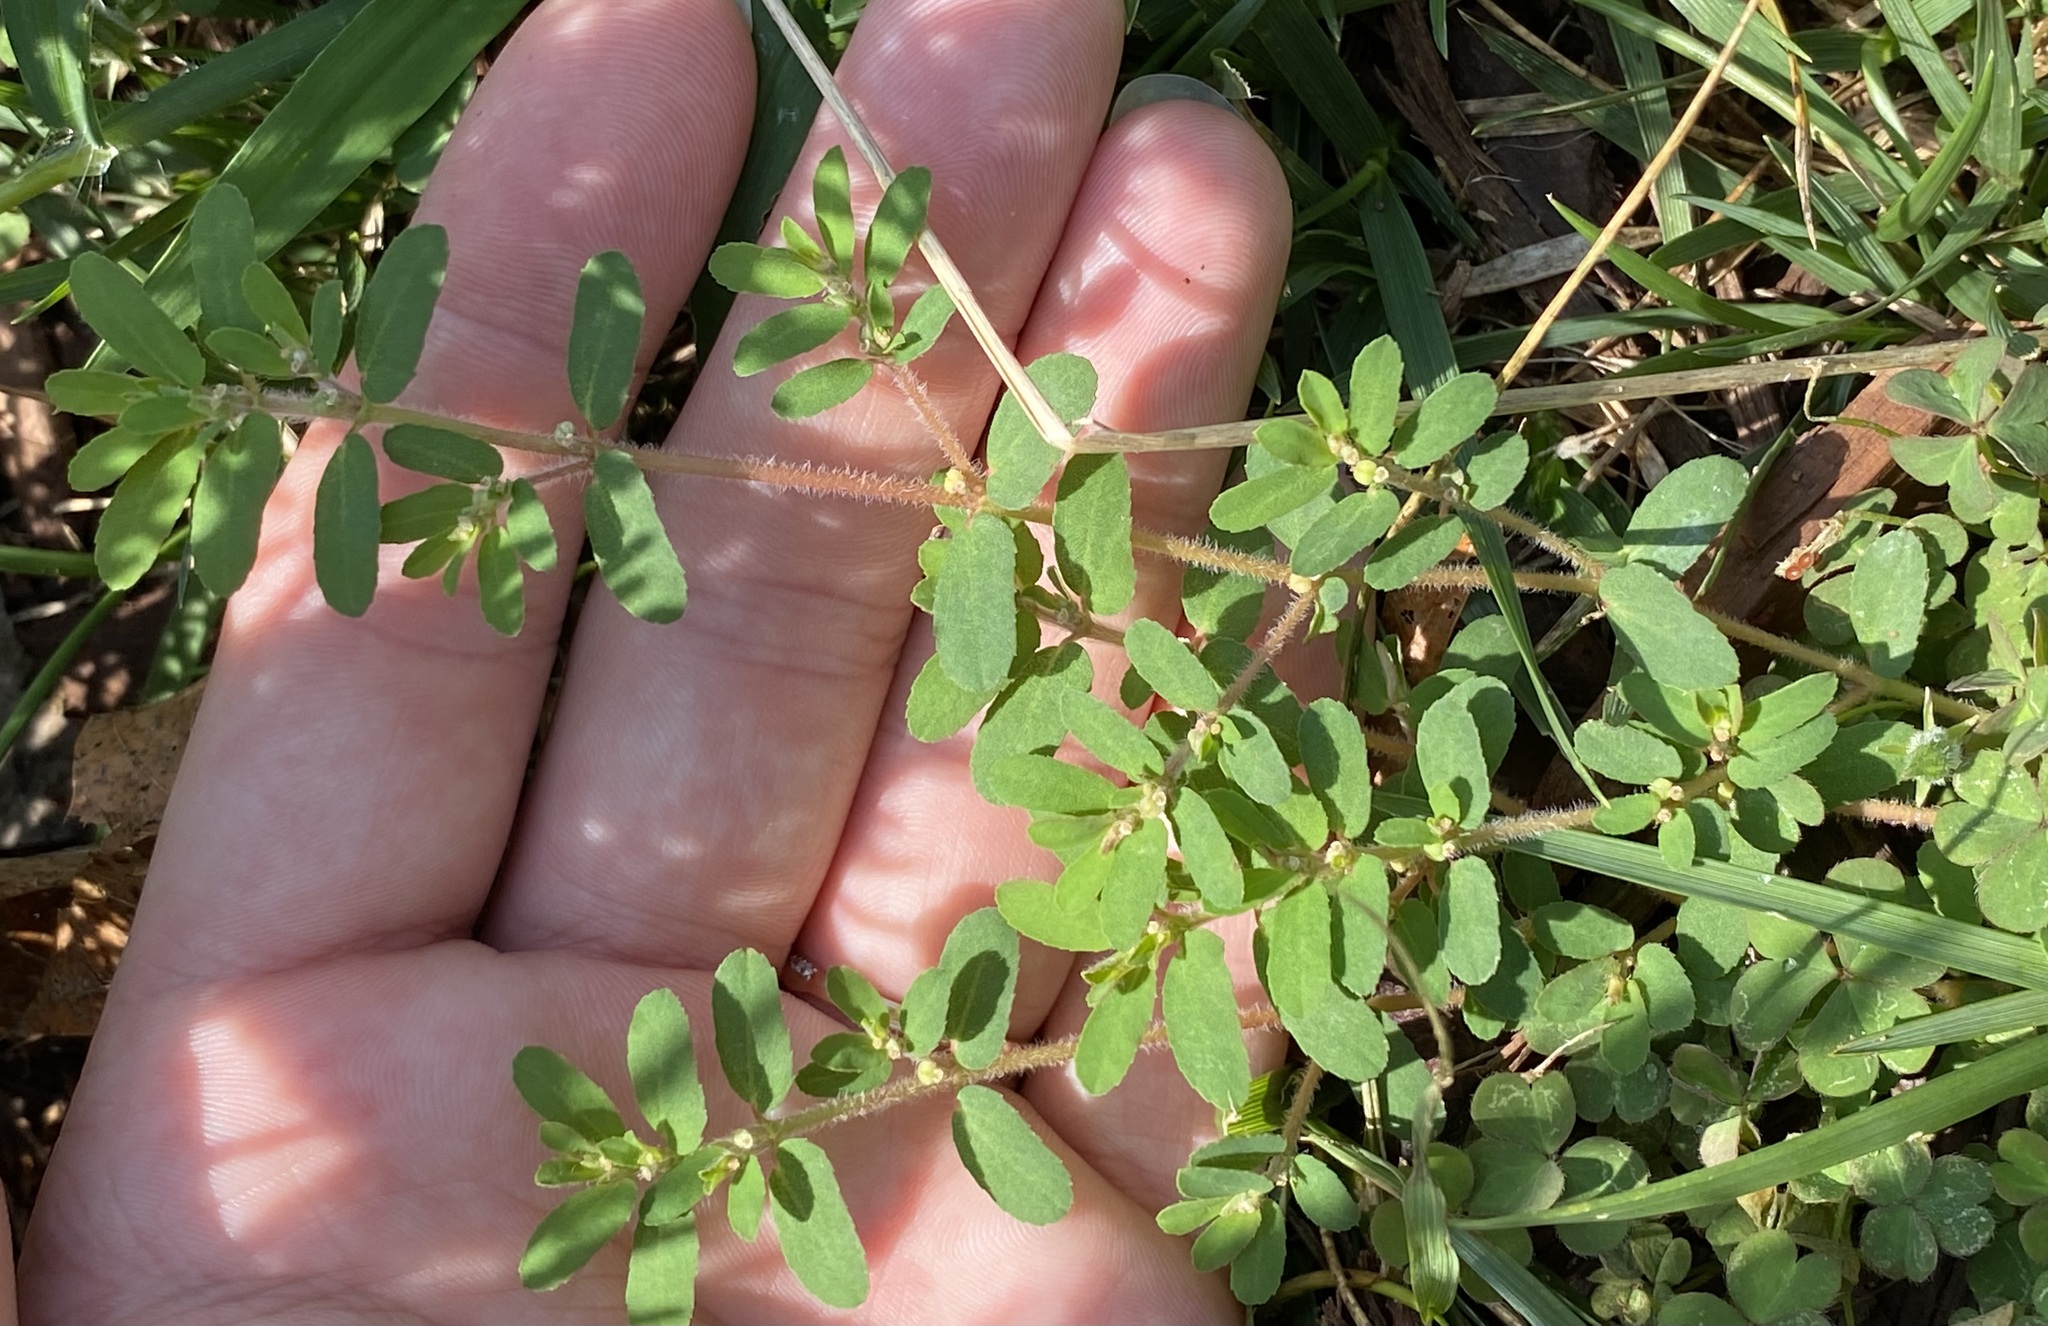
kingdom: Plantae
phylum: Tracheophyta
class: Magnoliopsida
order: Malpighiales
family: Euphorbiaceae
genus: Euphorbia
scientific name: Euphorbia maculata
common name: Spotted spurge
